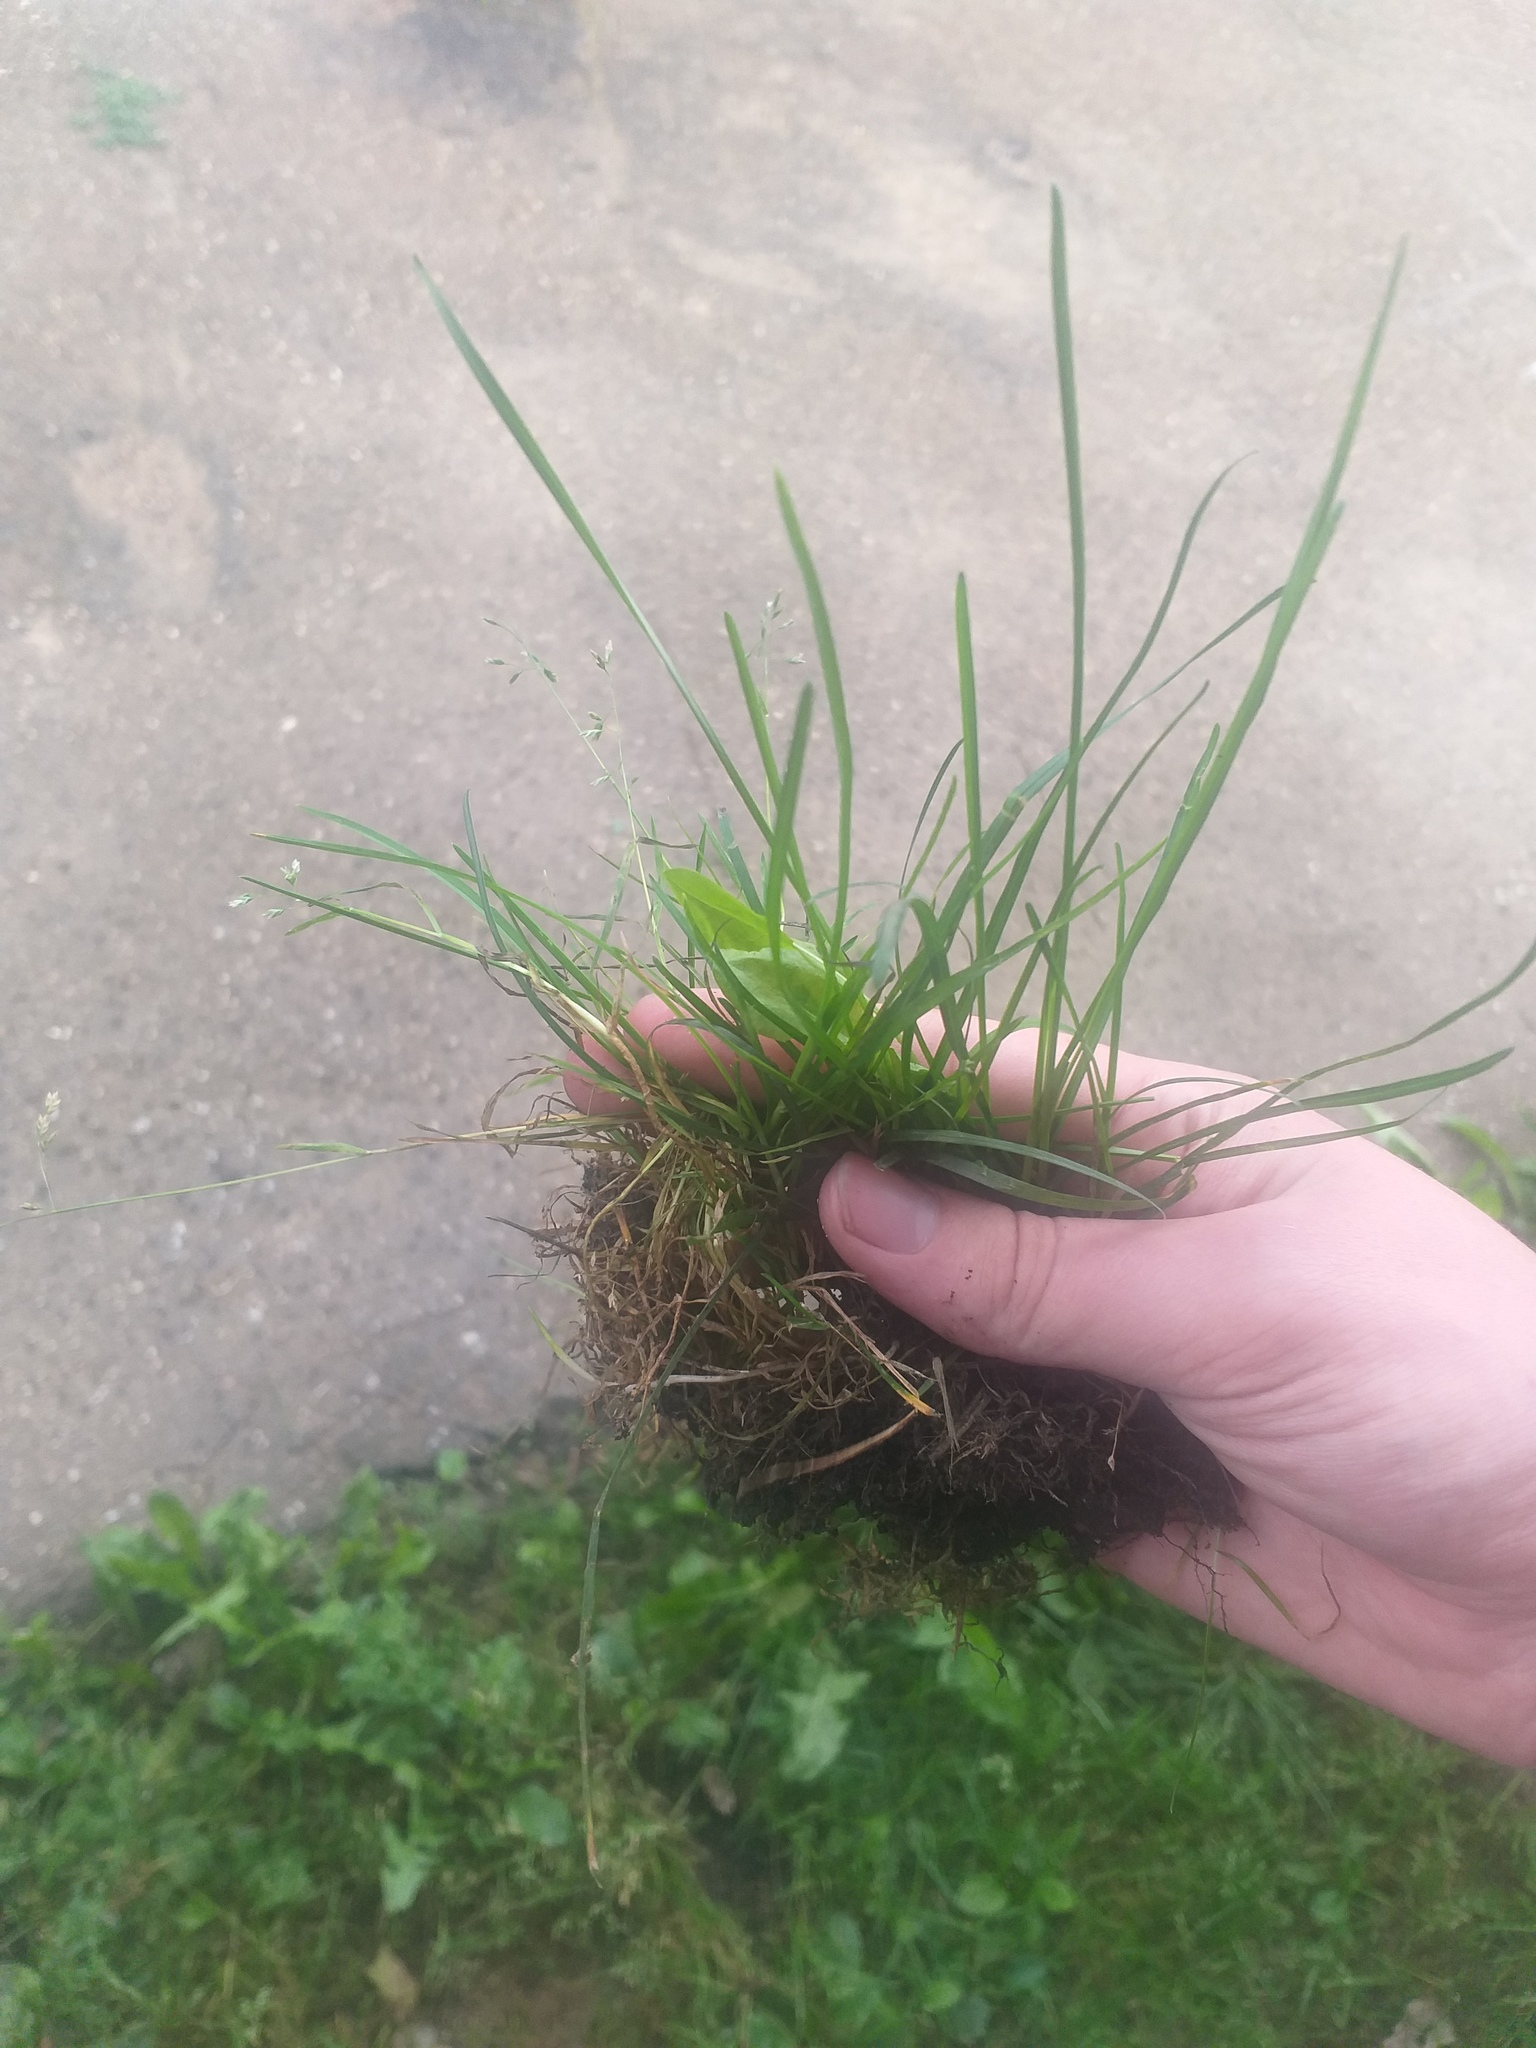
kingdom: Plantae
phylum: Tracheophyta
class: Liliopsida
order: Poales
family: Poaceae
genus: Poa
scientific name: Poa annua
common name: Annual bluegrass
